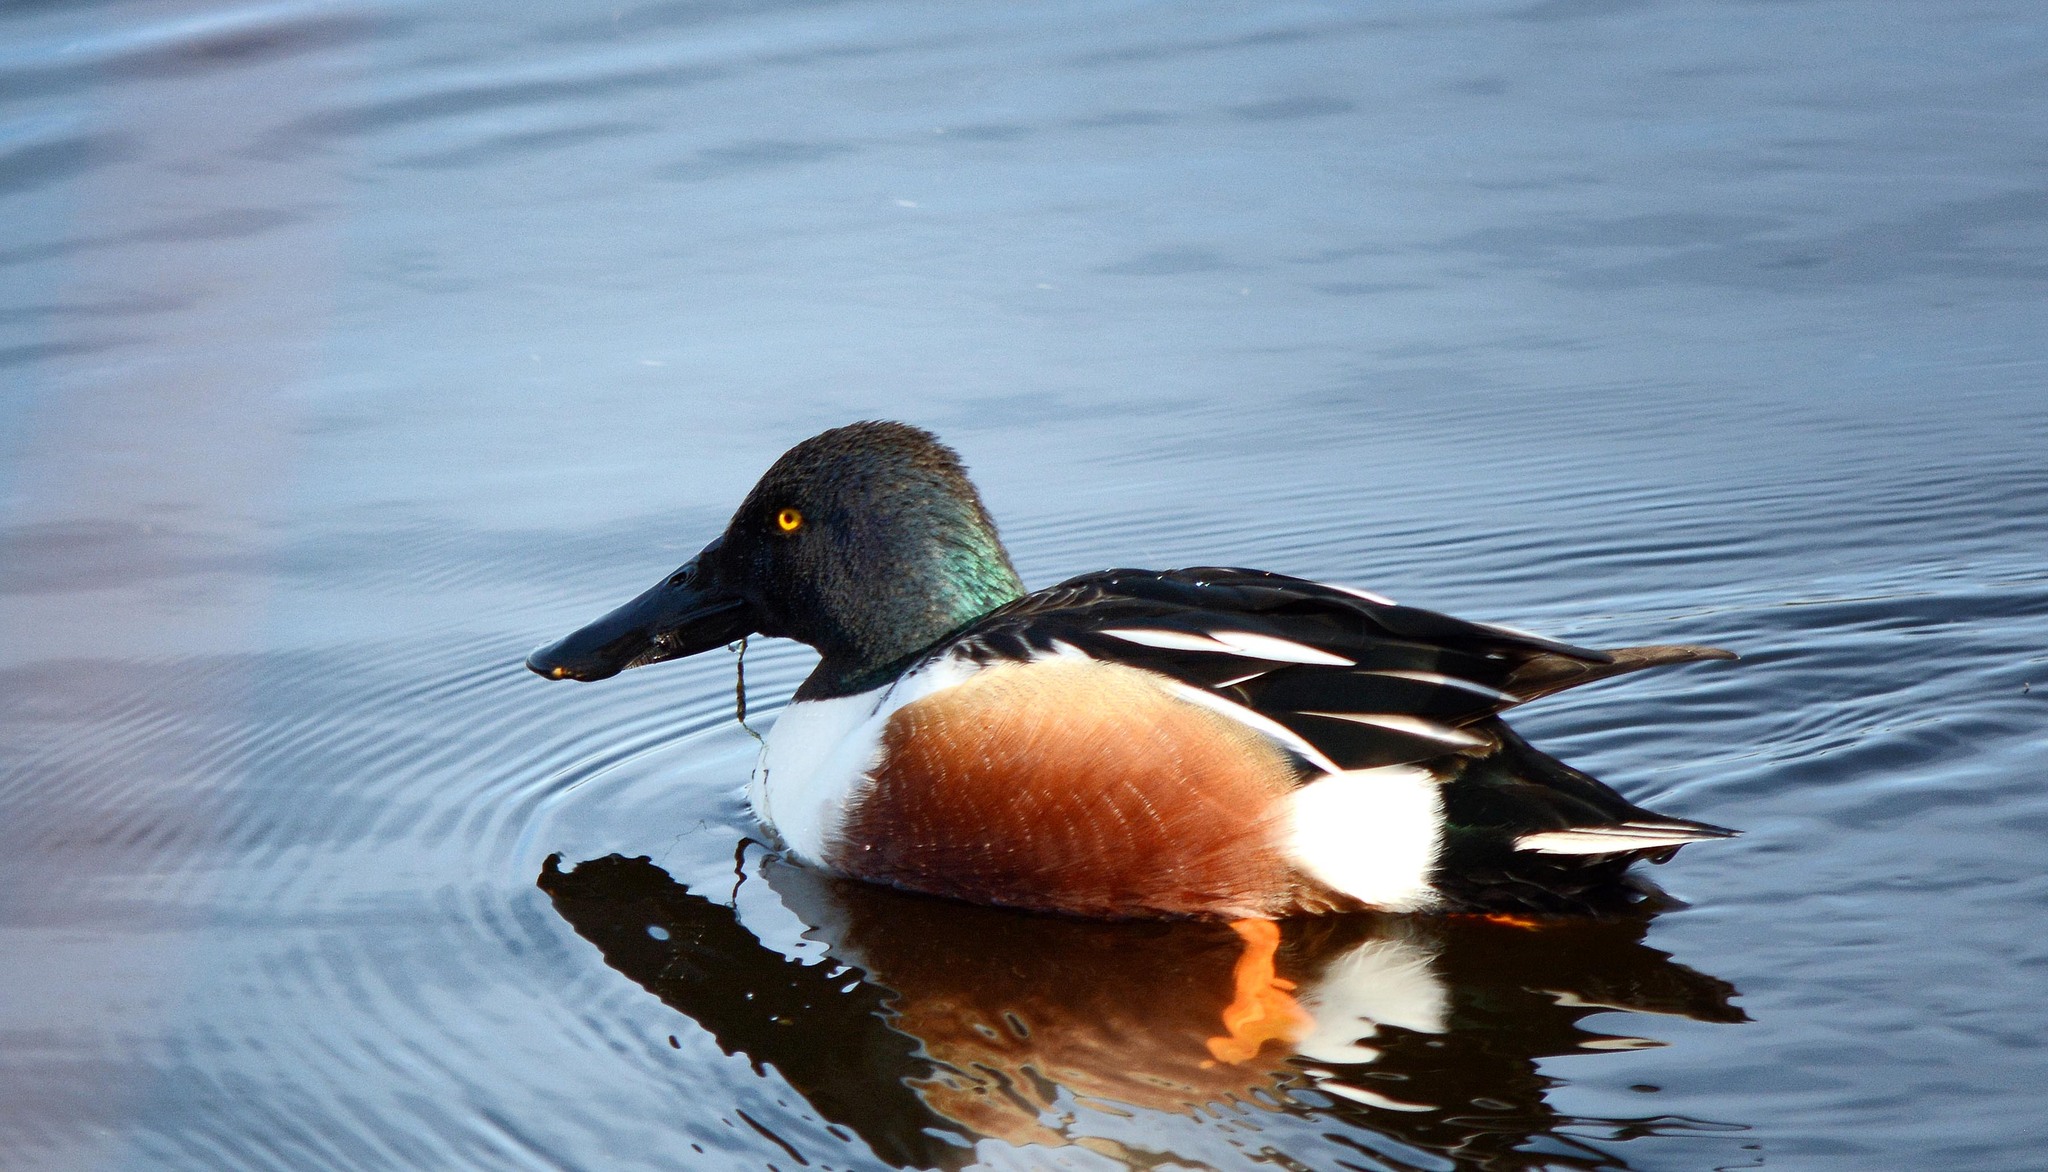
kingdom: Animalia
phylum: Chordata
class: Aves
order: Anseriformes
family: Anatidae
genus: Spatula
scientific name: Spatula clypeata
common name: Northern shoveler
